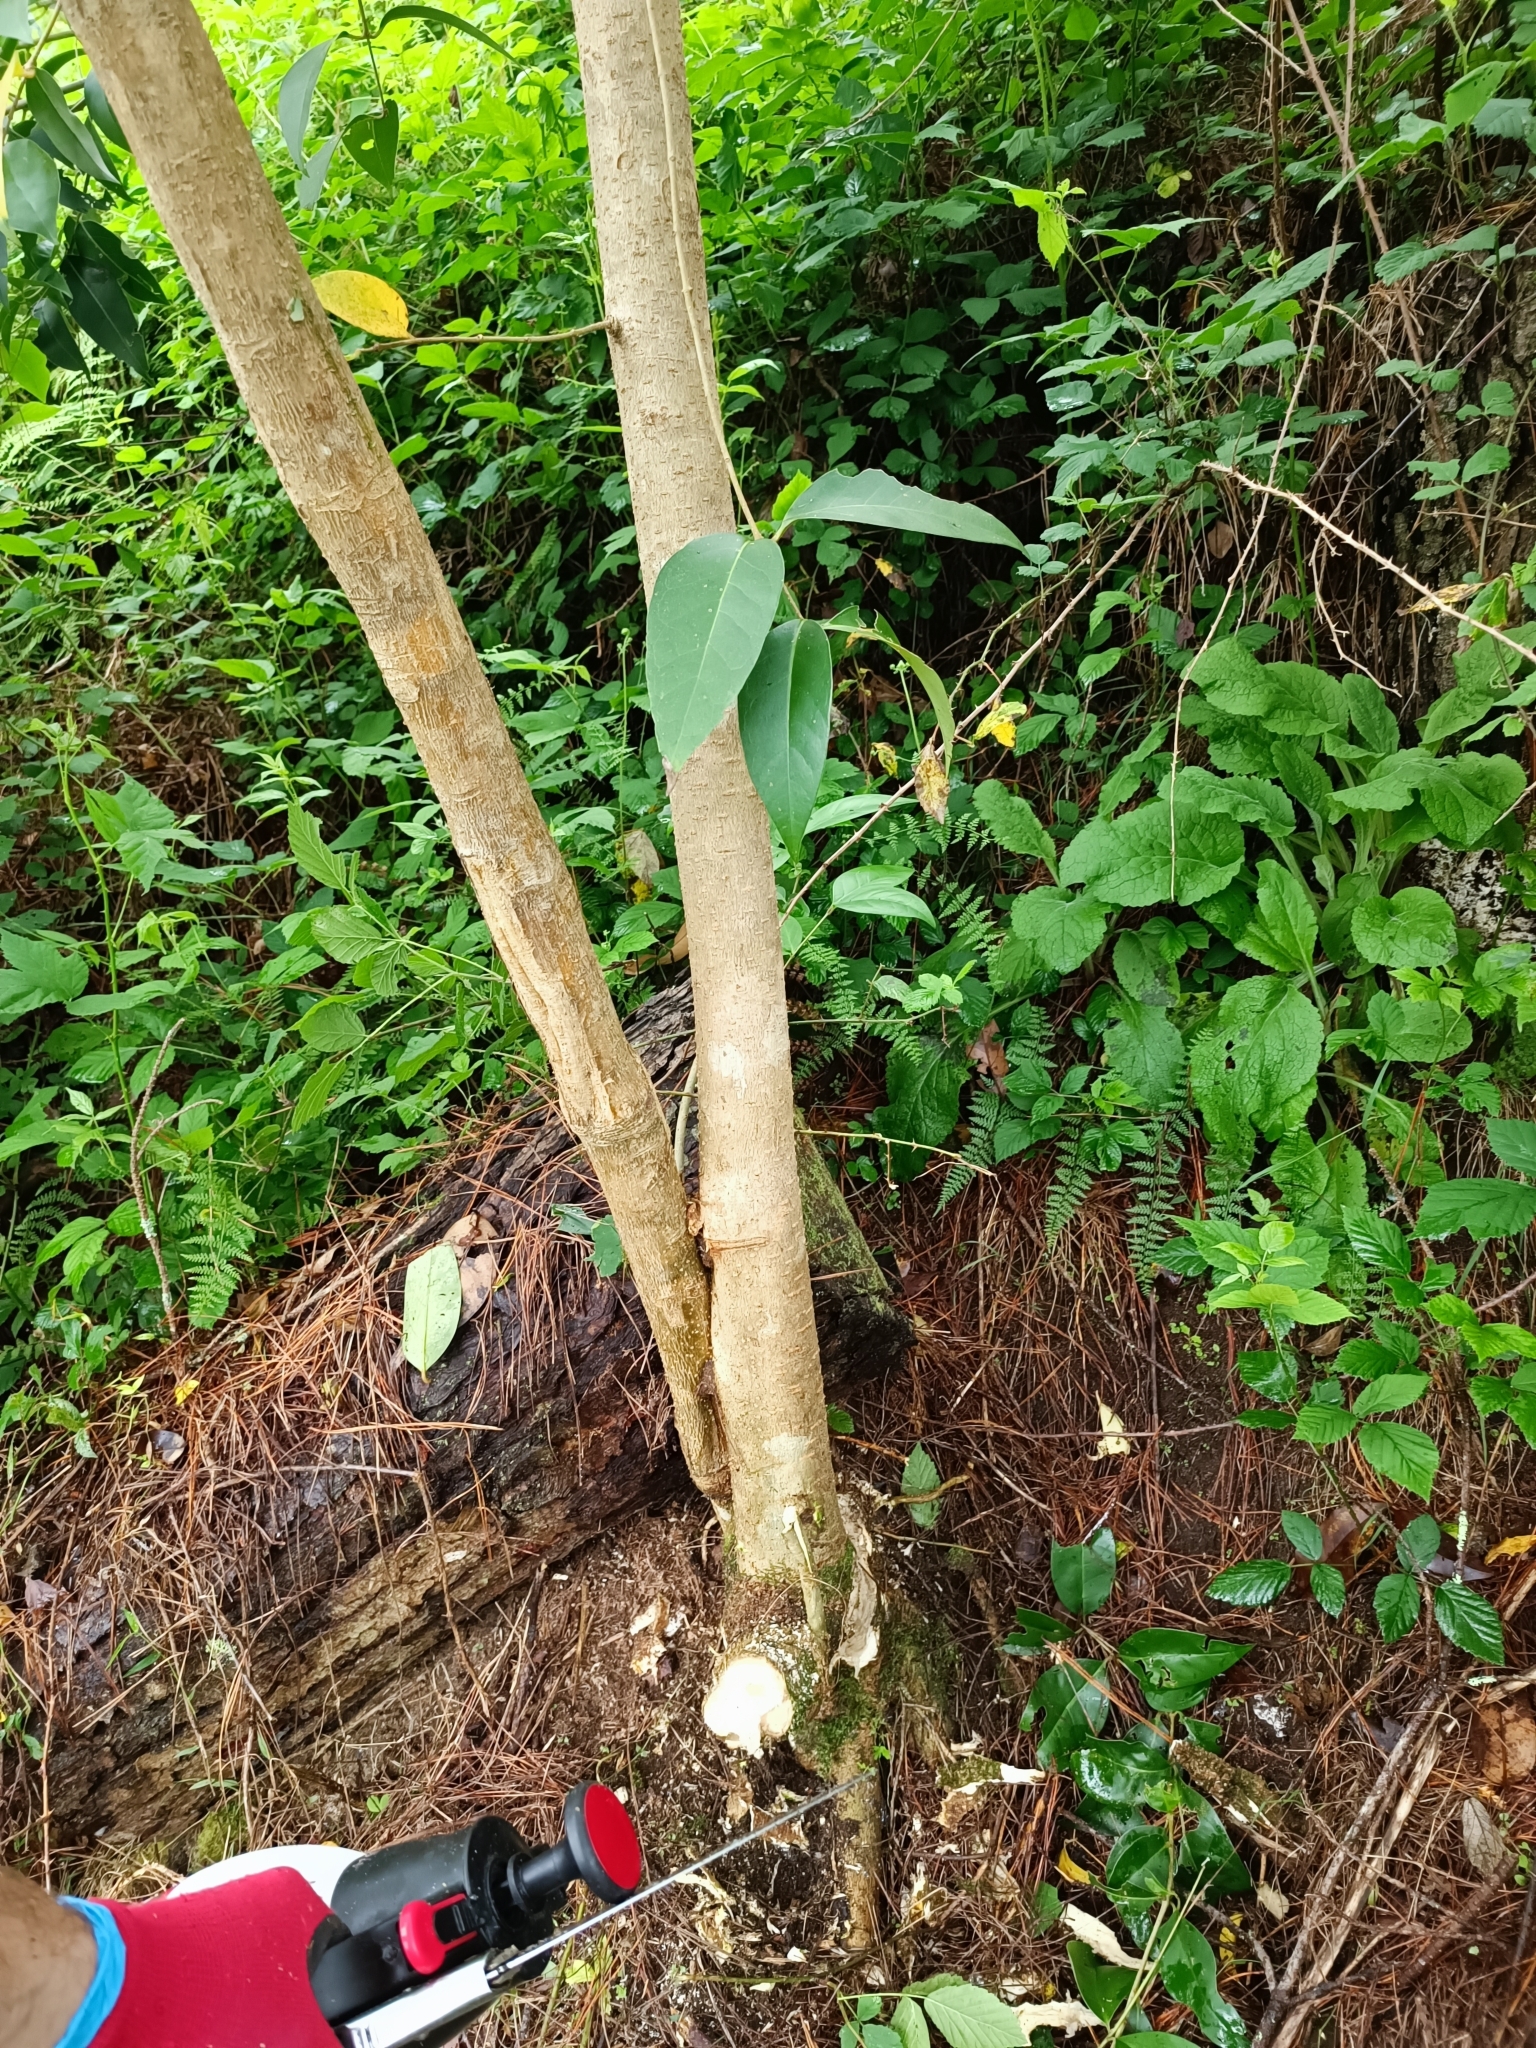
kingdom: Plantae
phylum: Tracheophyta
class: Magnoliopsida
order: Lamiales
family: Oleaceae
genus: Ligustrum
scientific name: Ligustrum lucidum
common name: Glossy privet
